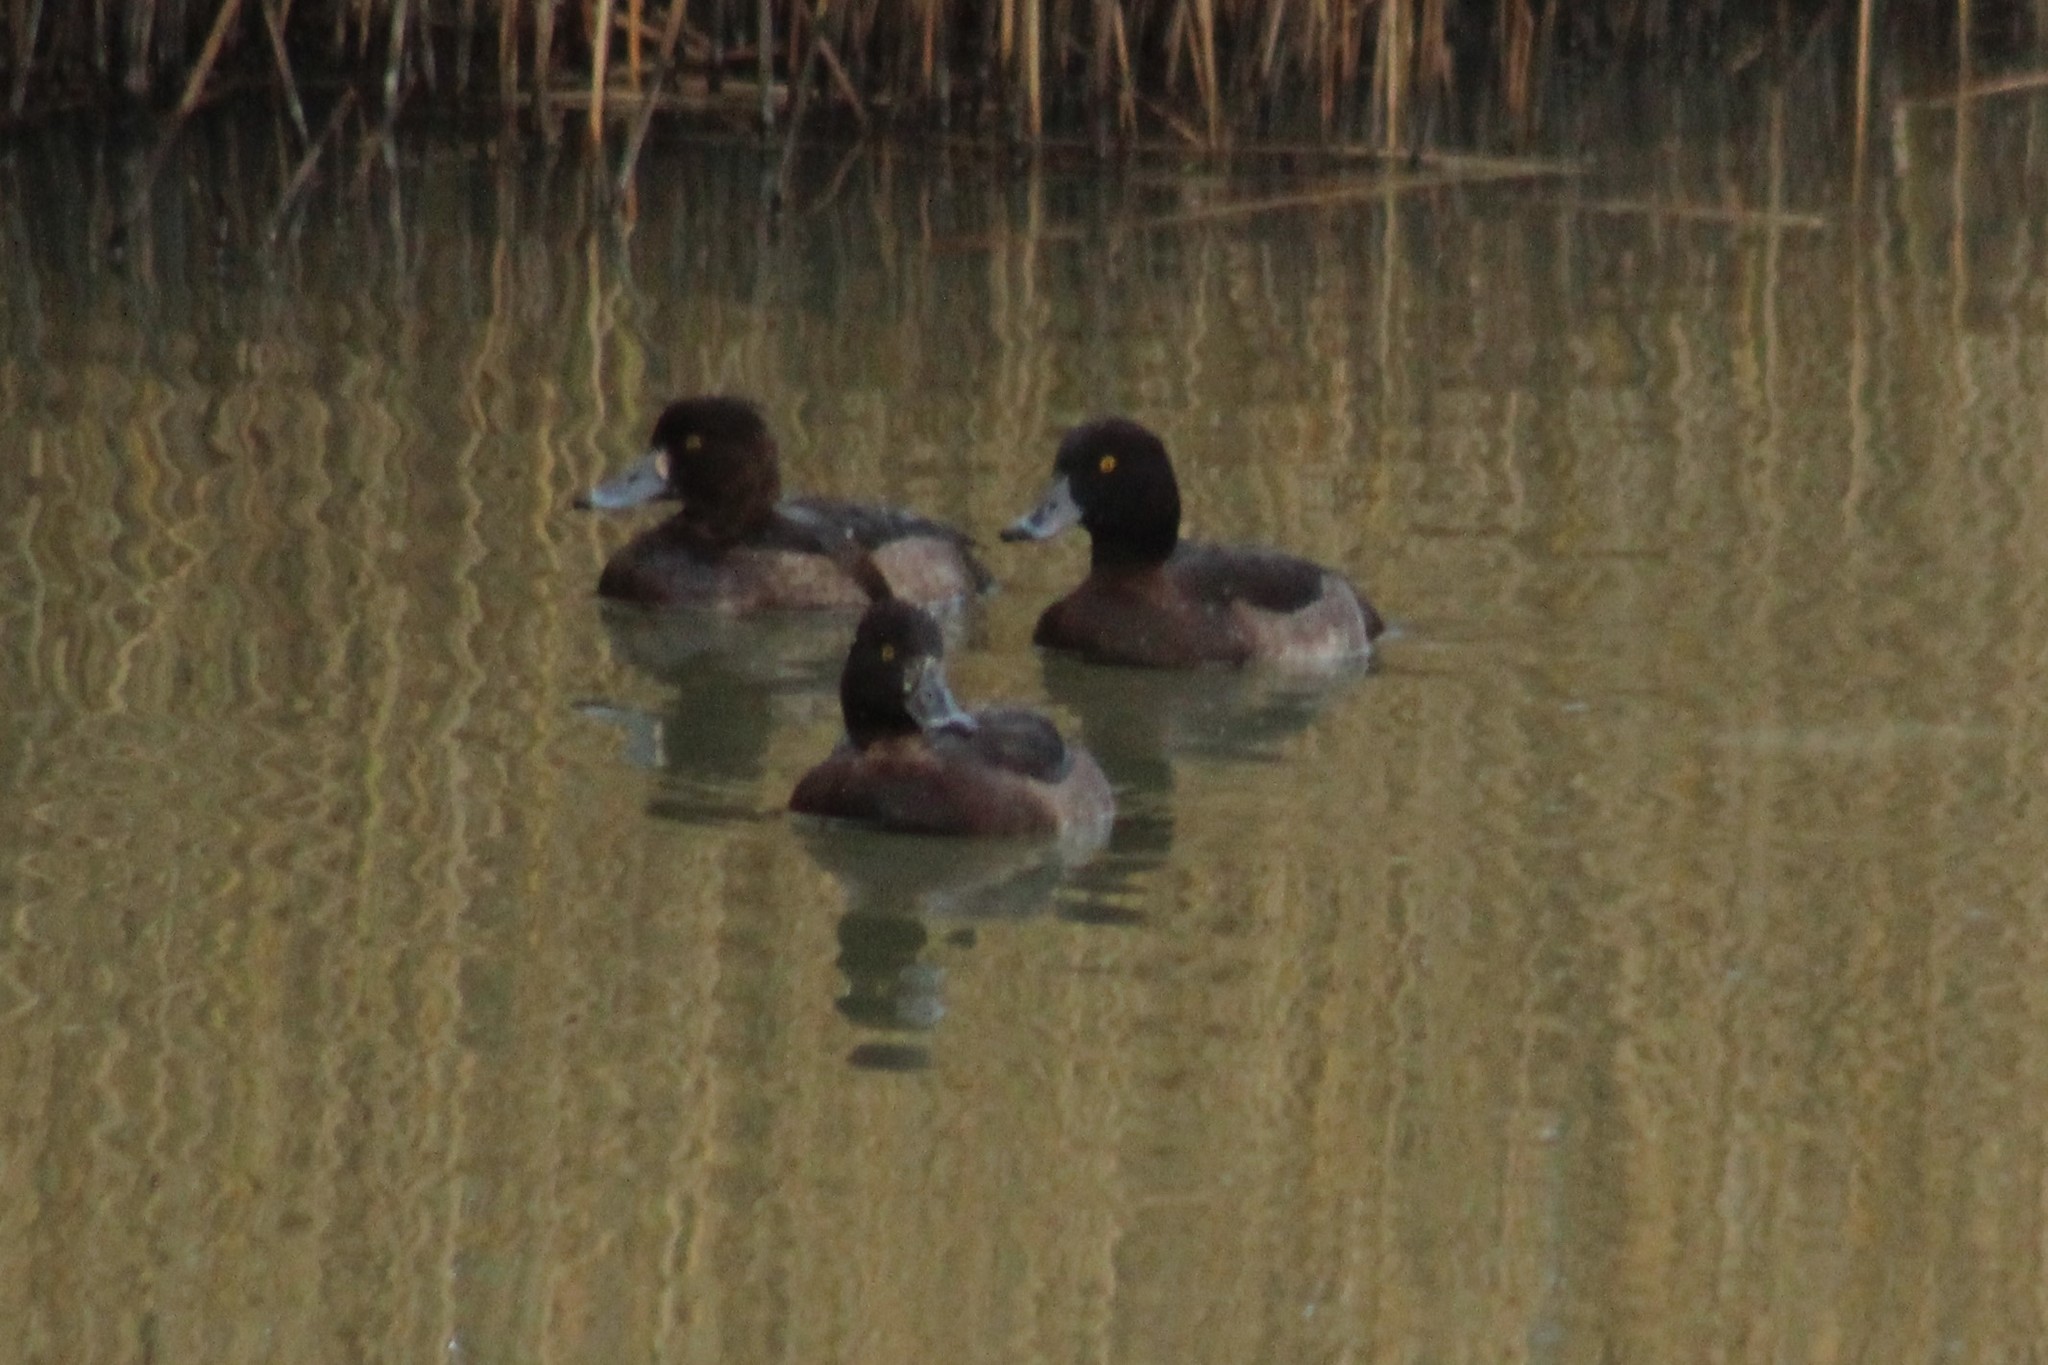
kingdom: Animalia
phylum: Chordata
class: Aves
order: Anseriformes
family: Anatidae
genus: Aythya
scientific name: Aythya fuligula
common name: Tufted duck
